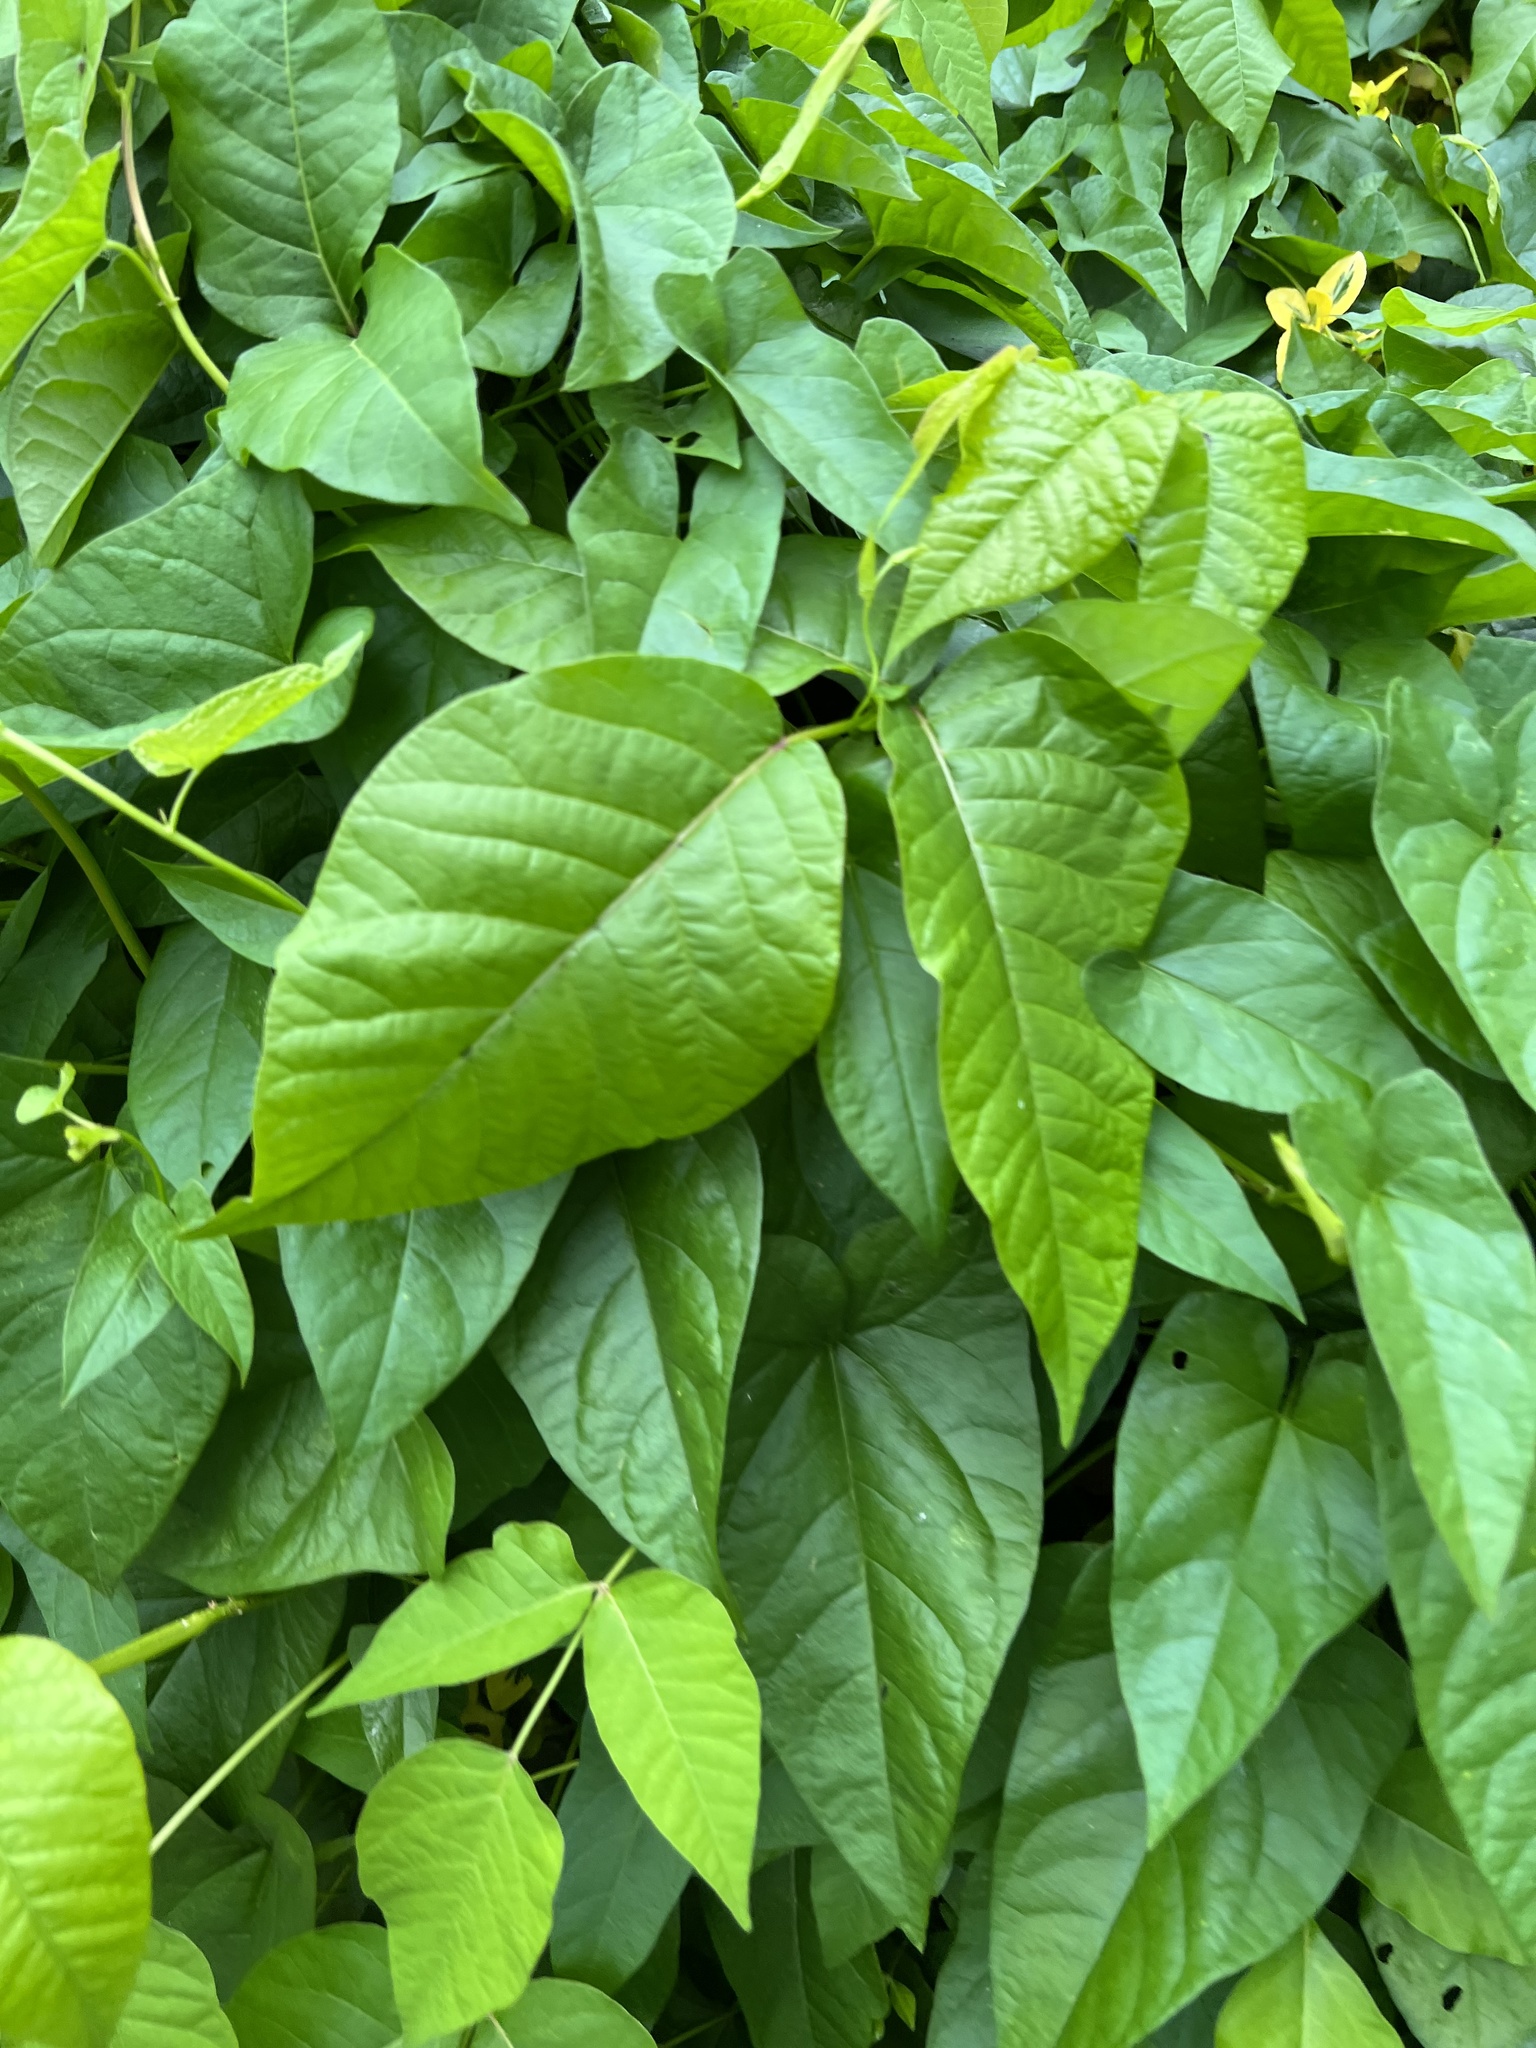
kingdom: Plantae
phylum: Tracheophyta
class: Magnoliopsida
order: Sapindales
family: Anacardiaceae
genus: Toxicodendron
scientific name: Toxicodendron radicans
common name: Poison ivy
